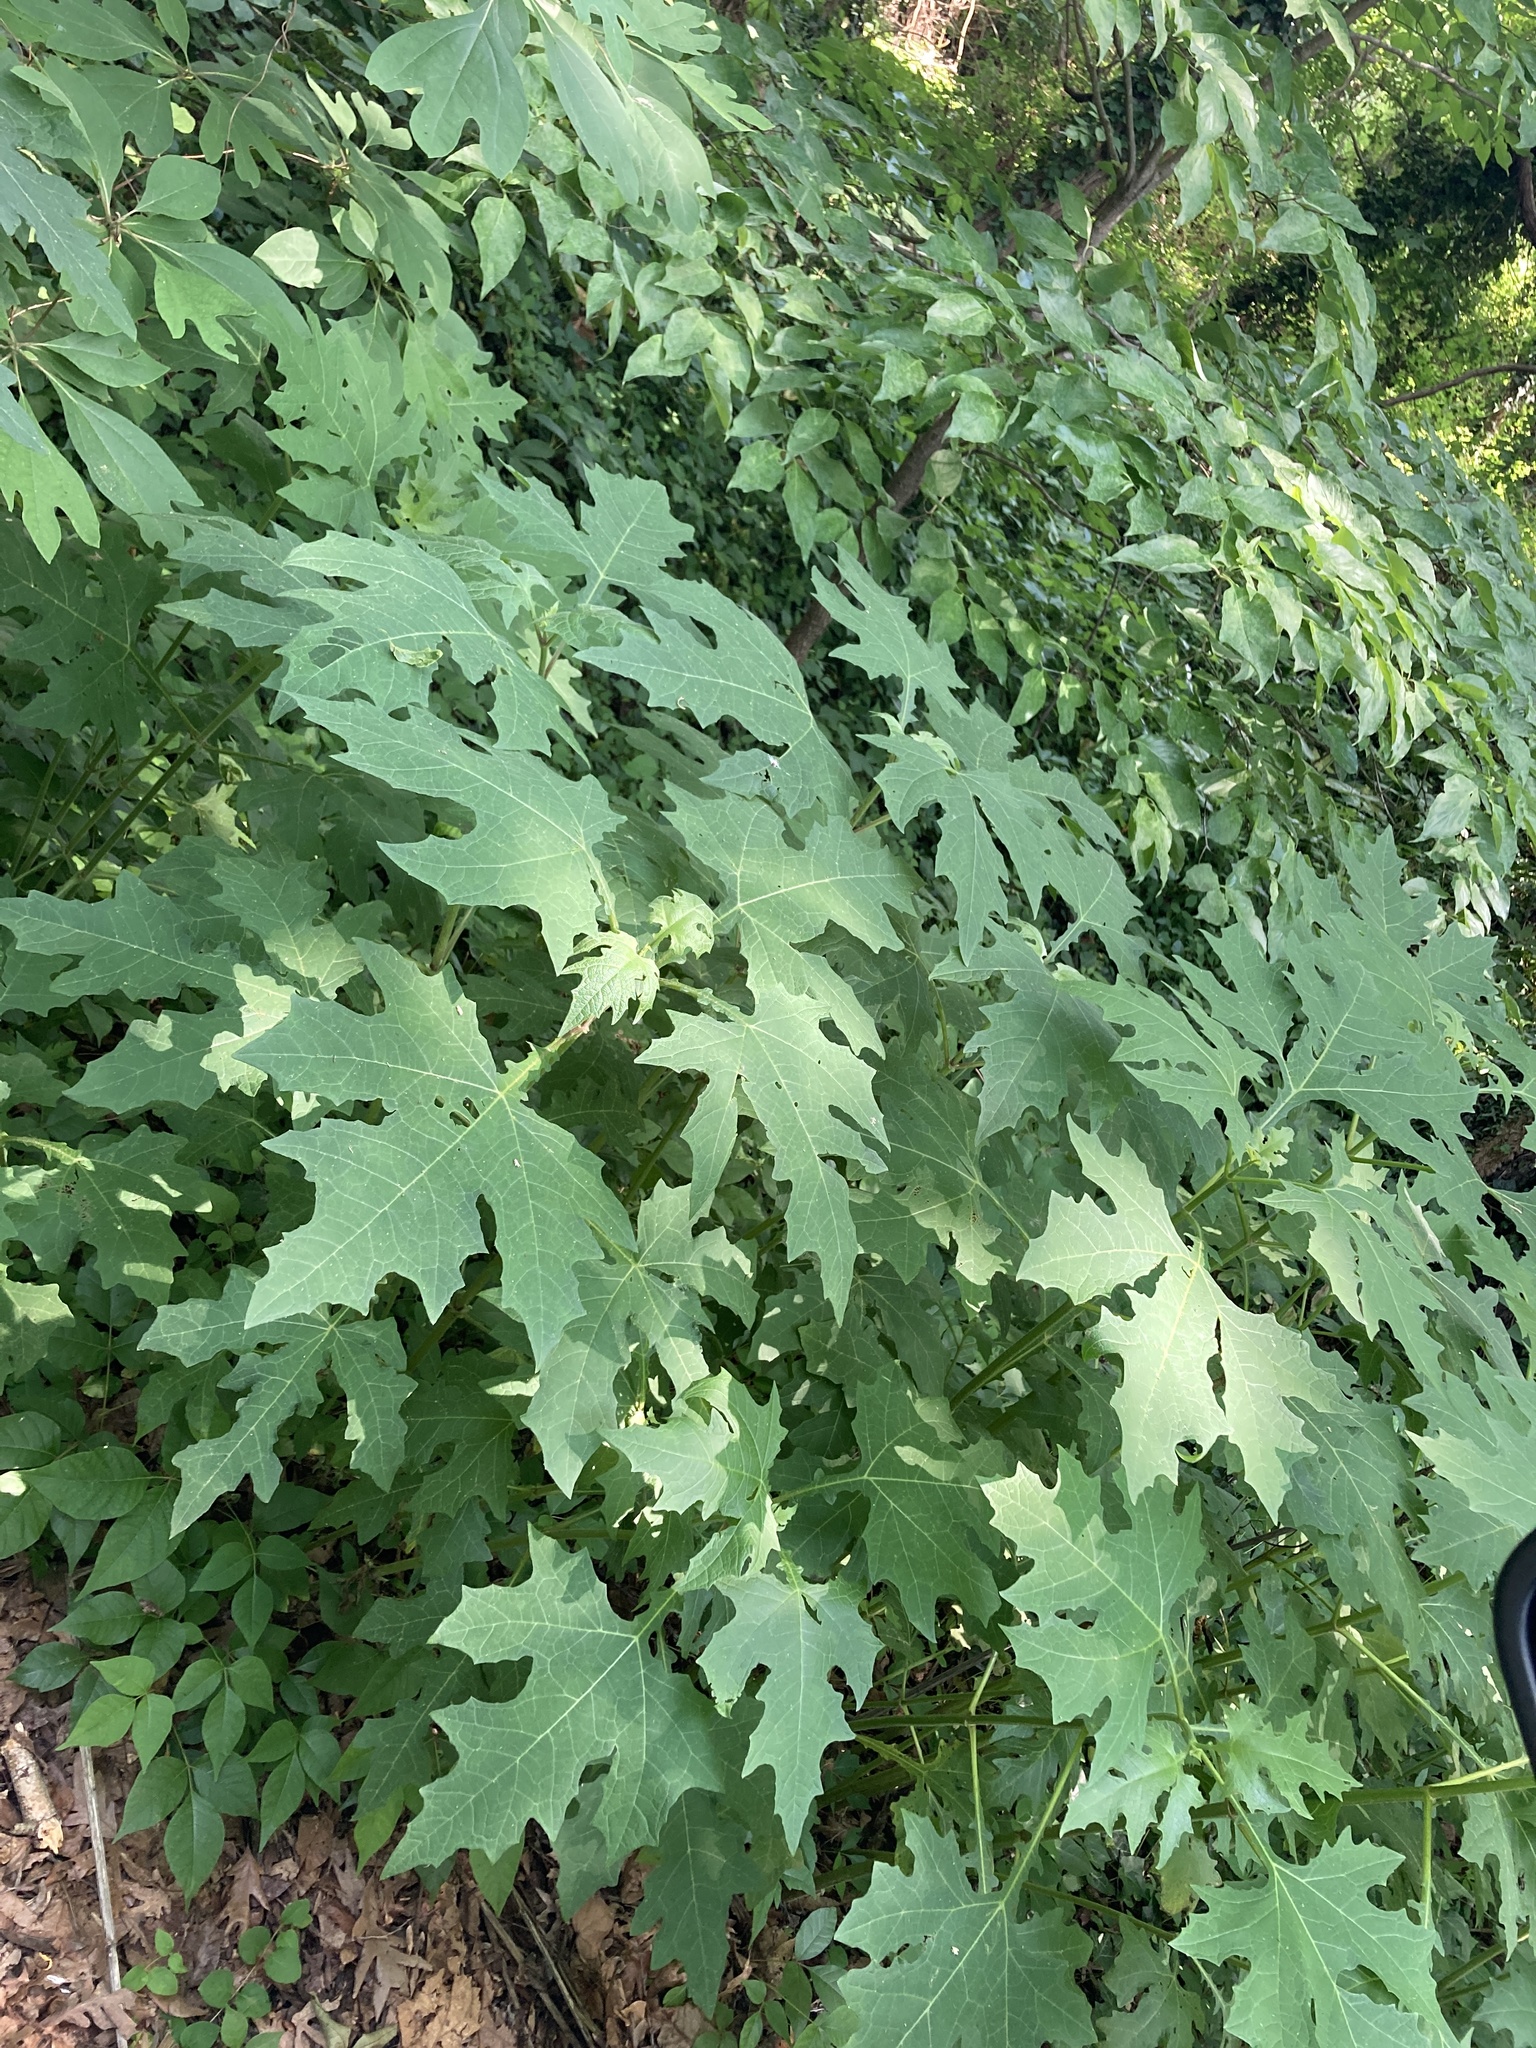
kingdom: Plantae
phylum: Tracheophyta
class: Magnoliopsida
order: Asterales
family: Asteraceae
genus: Smallanthus
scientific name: Smallanthus uvedalia
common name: Bear's-foot
